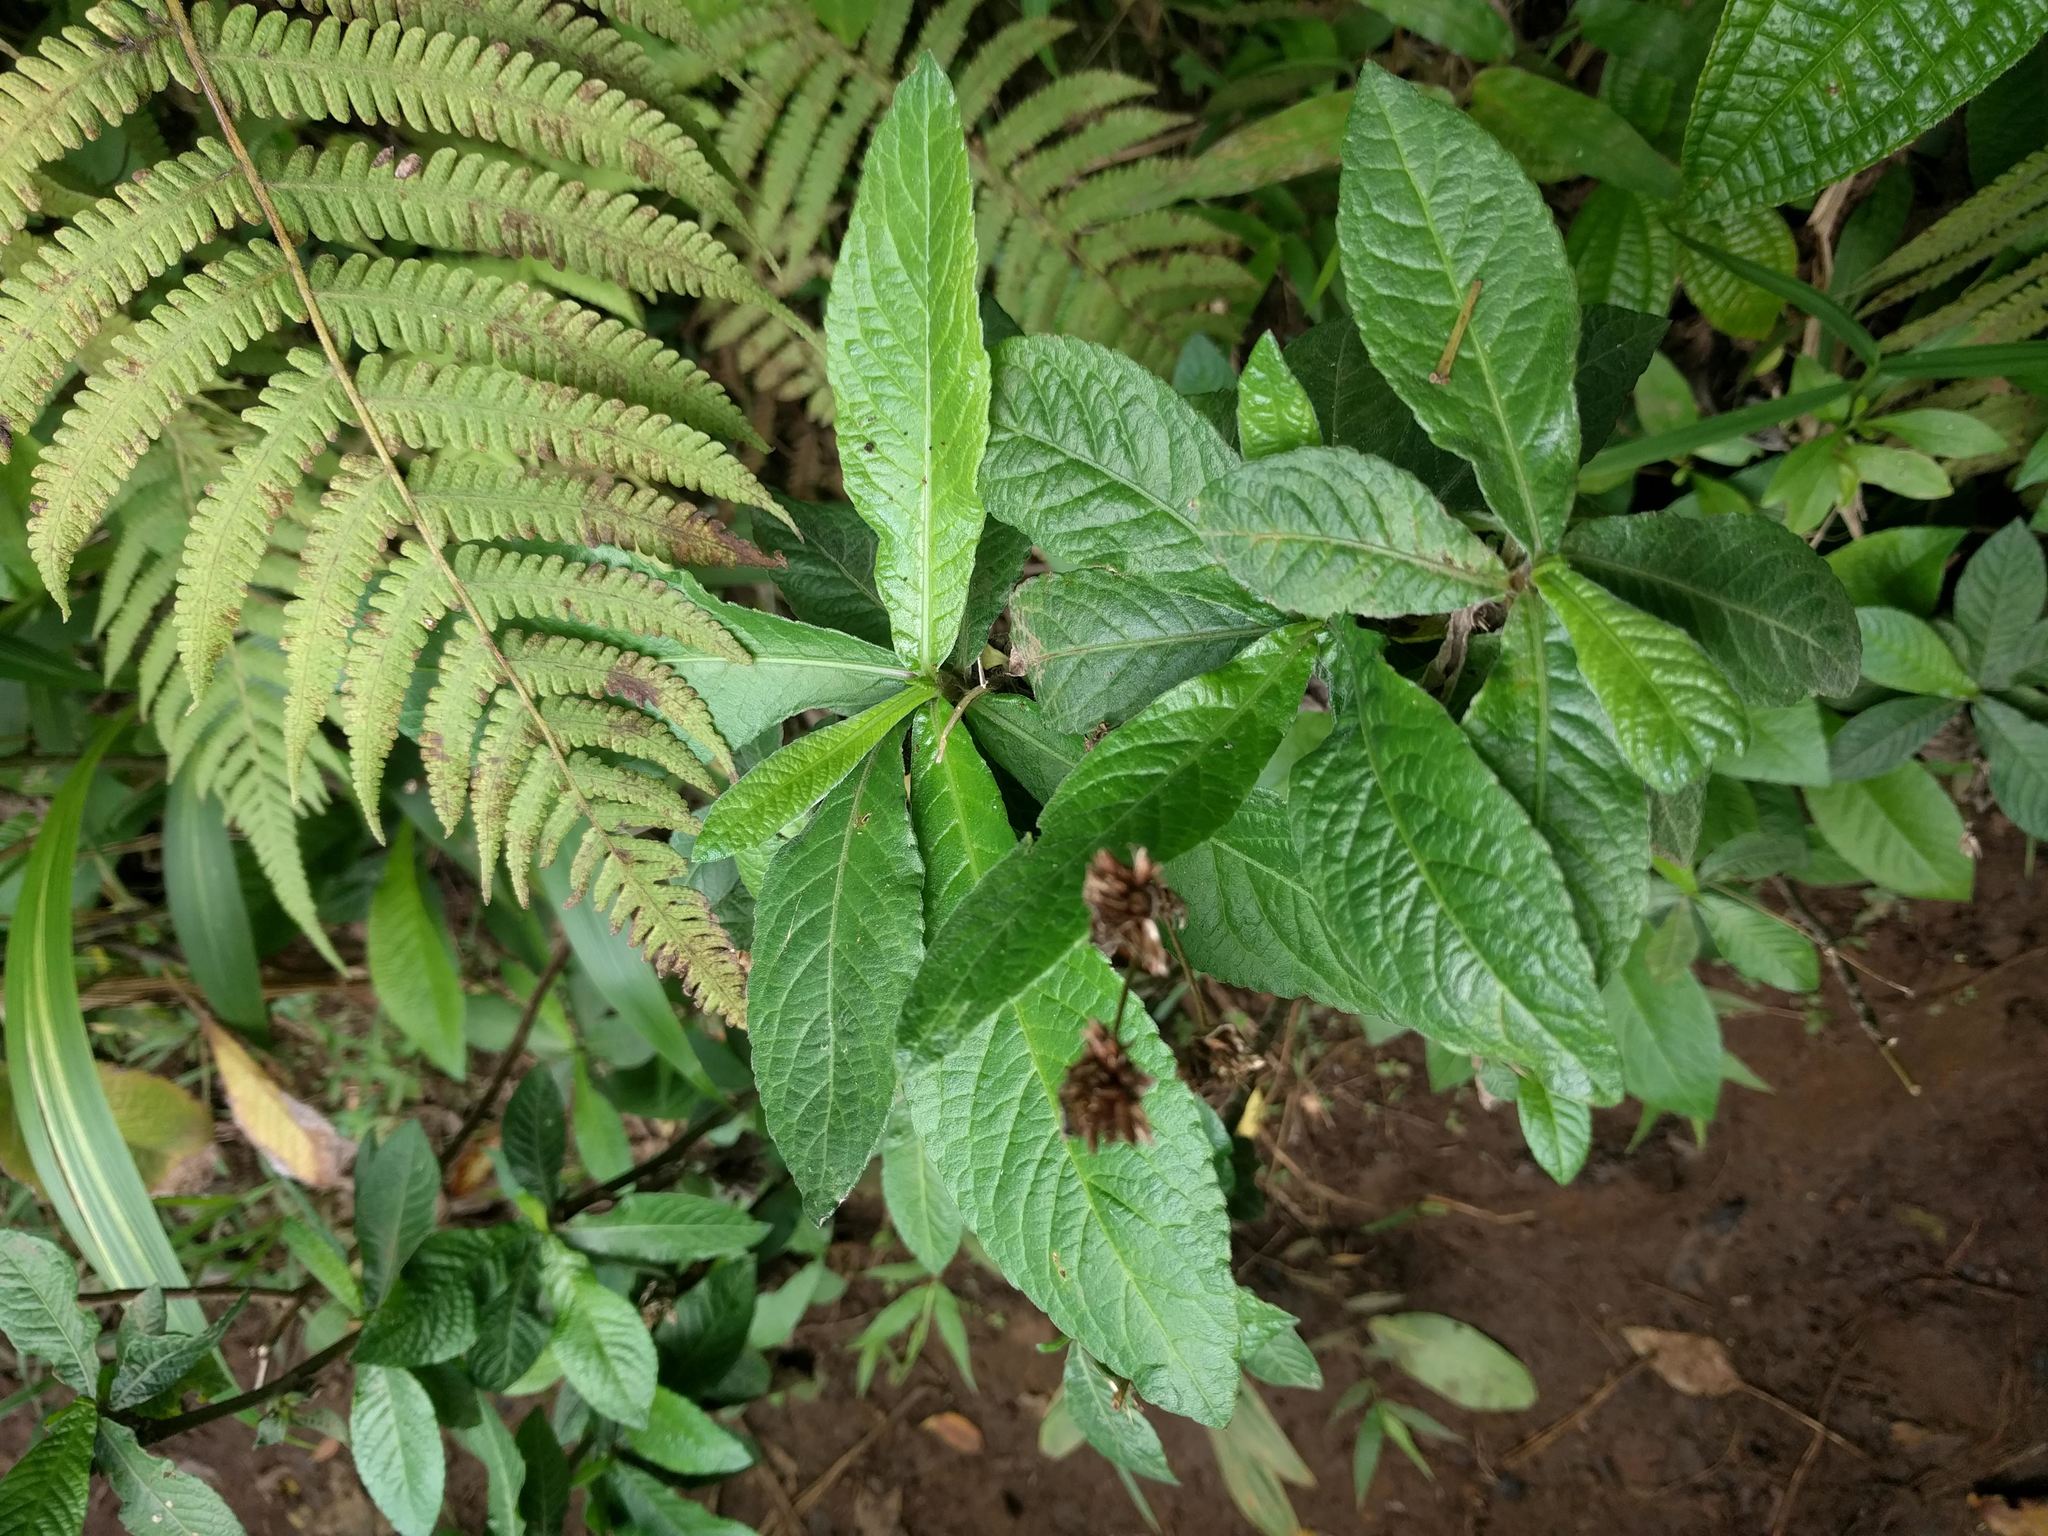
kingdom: Plantae
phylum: Tracheophyta
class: Magnoliopsida
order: Asterales
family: Asteraceae
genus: Elephantopus
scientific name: Elephantopus mollis
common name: Soft elephantsfoot
